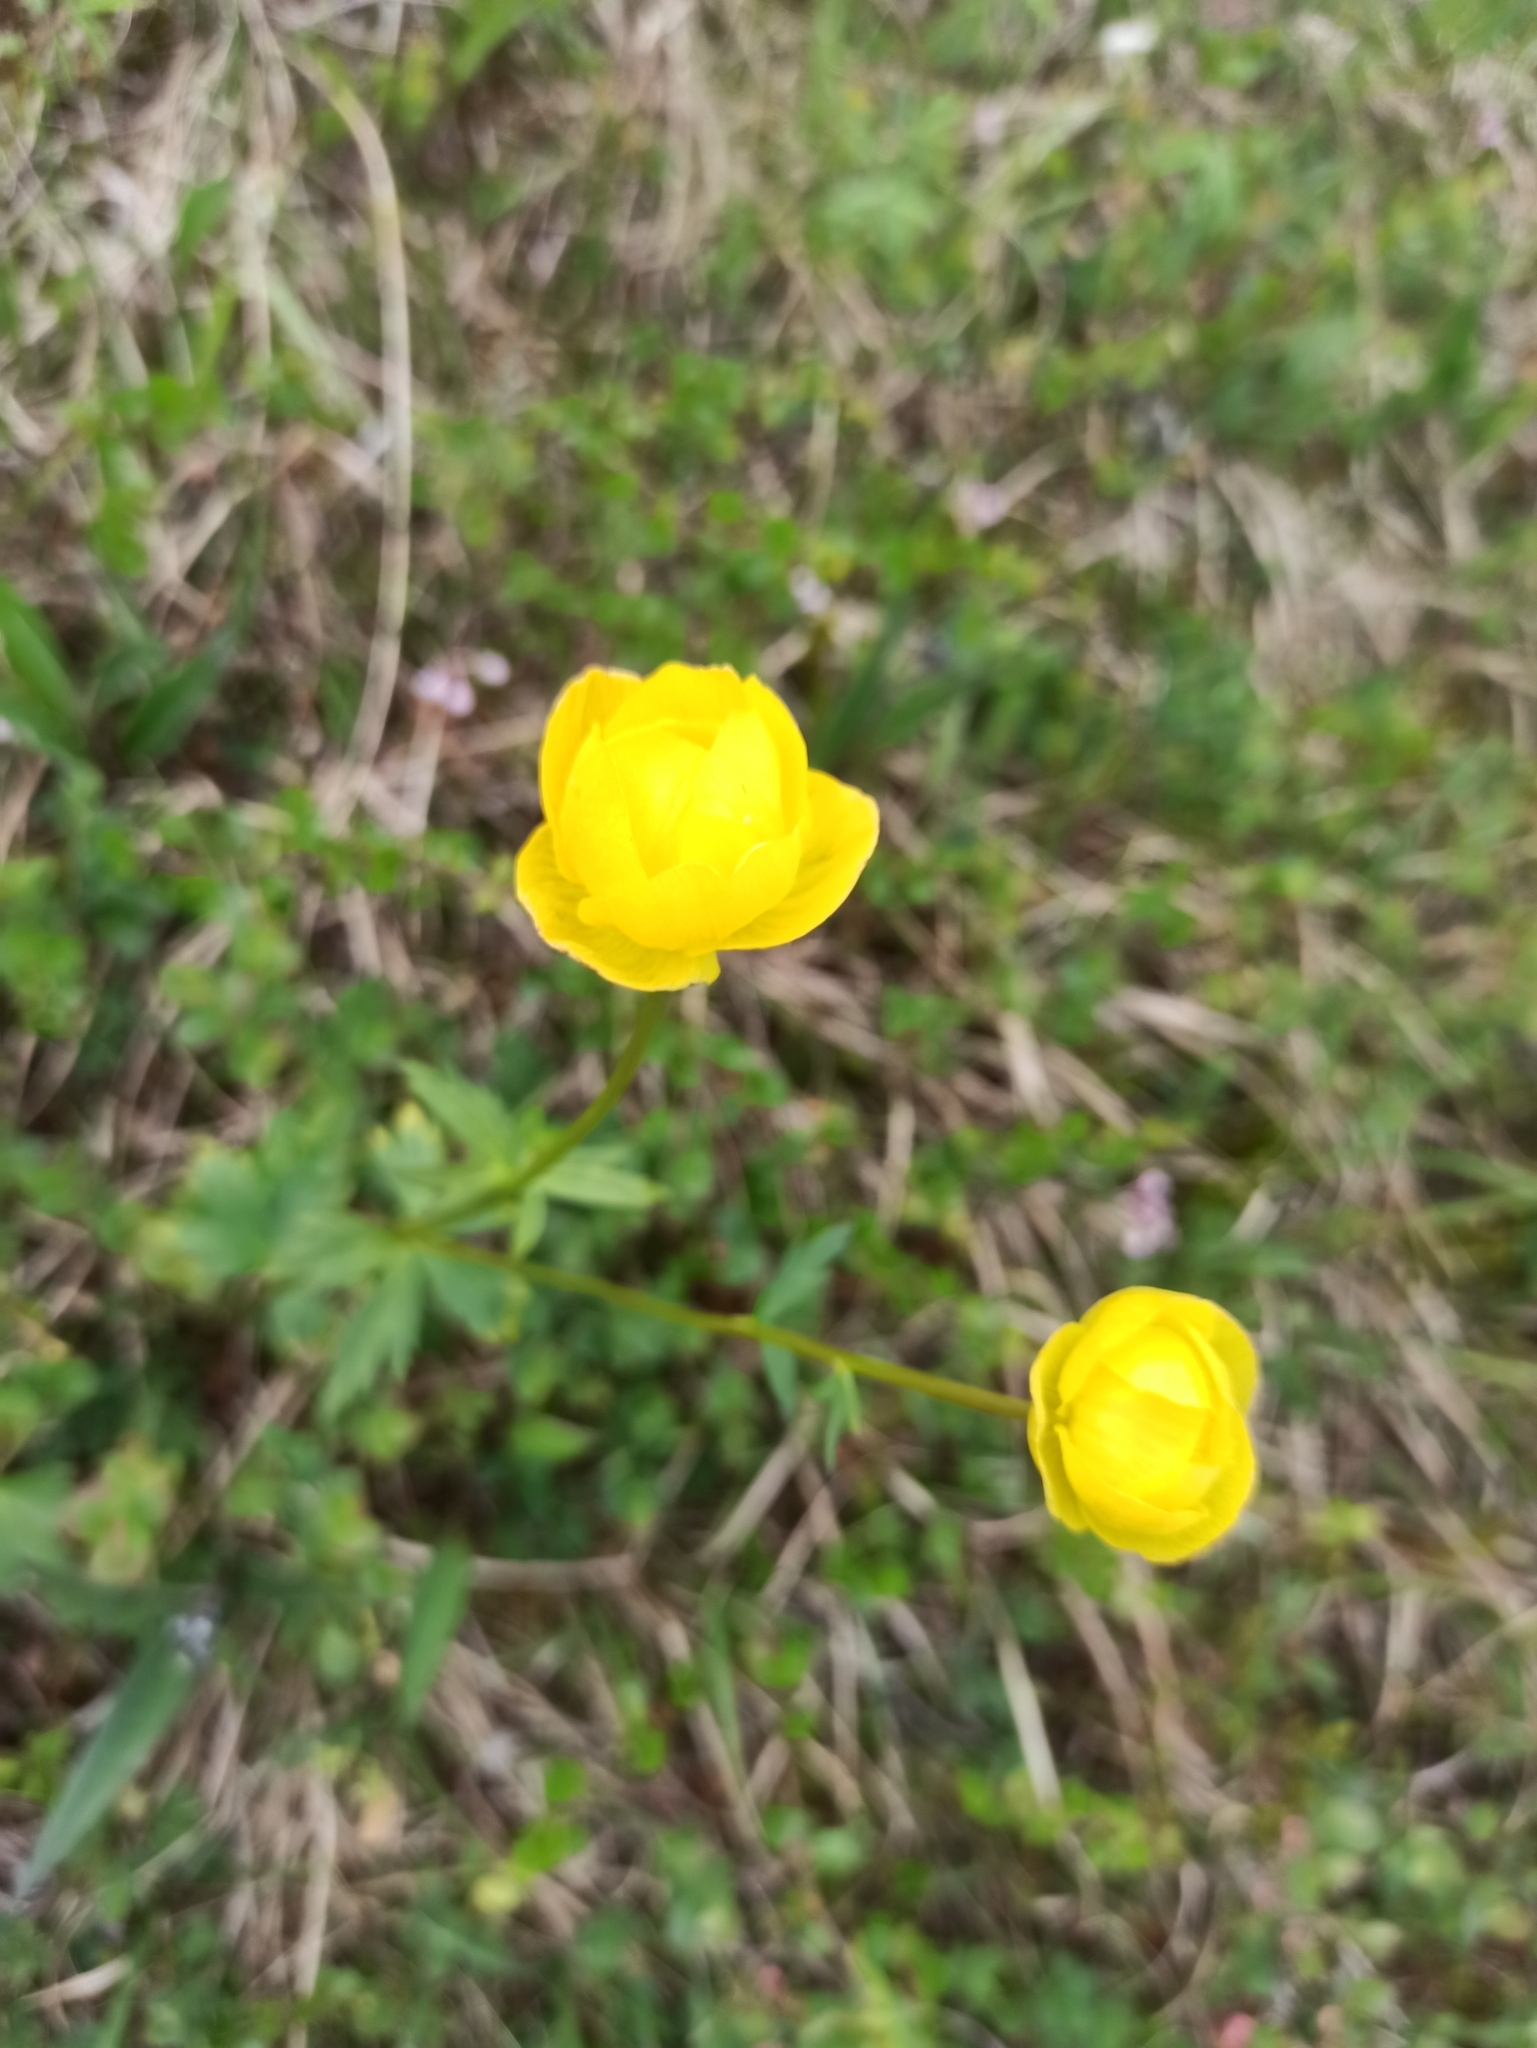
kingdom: Plantae
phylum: Tracheophyta
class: Magnoliopsida
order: Ranunculales
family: Ranunculaceae
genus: Trollius
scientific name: Trollius europaeus
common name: European globeflower
